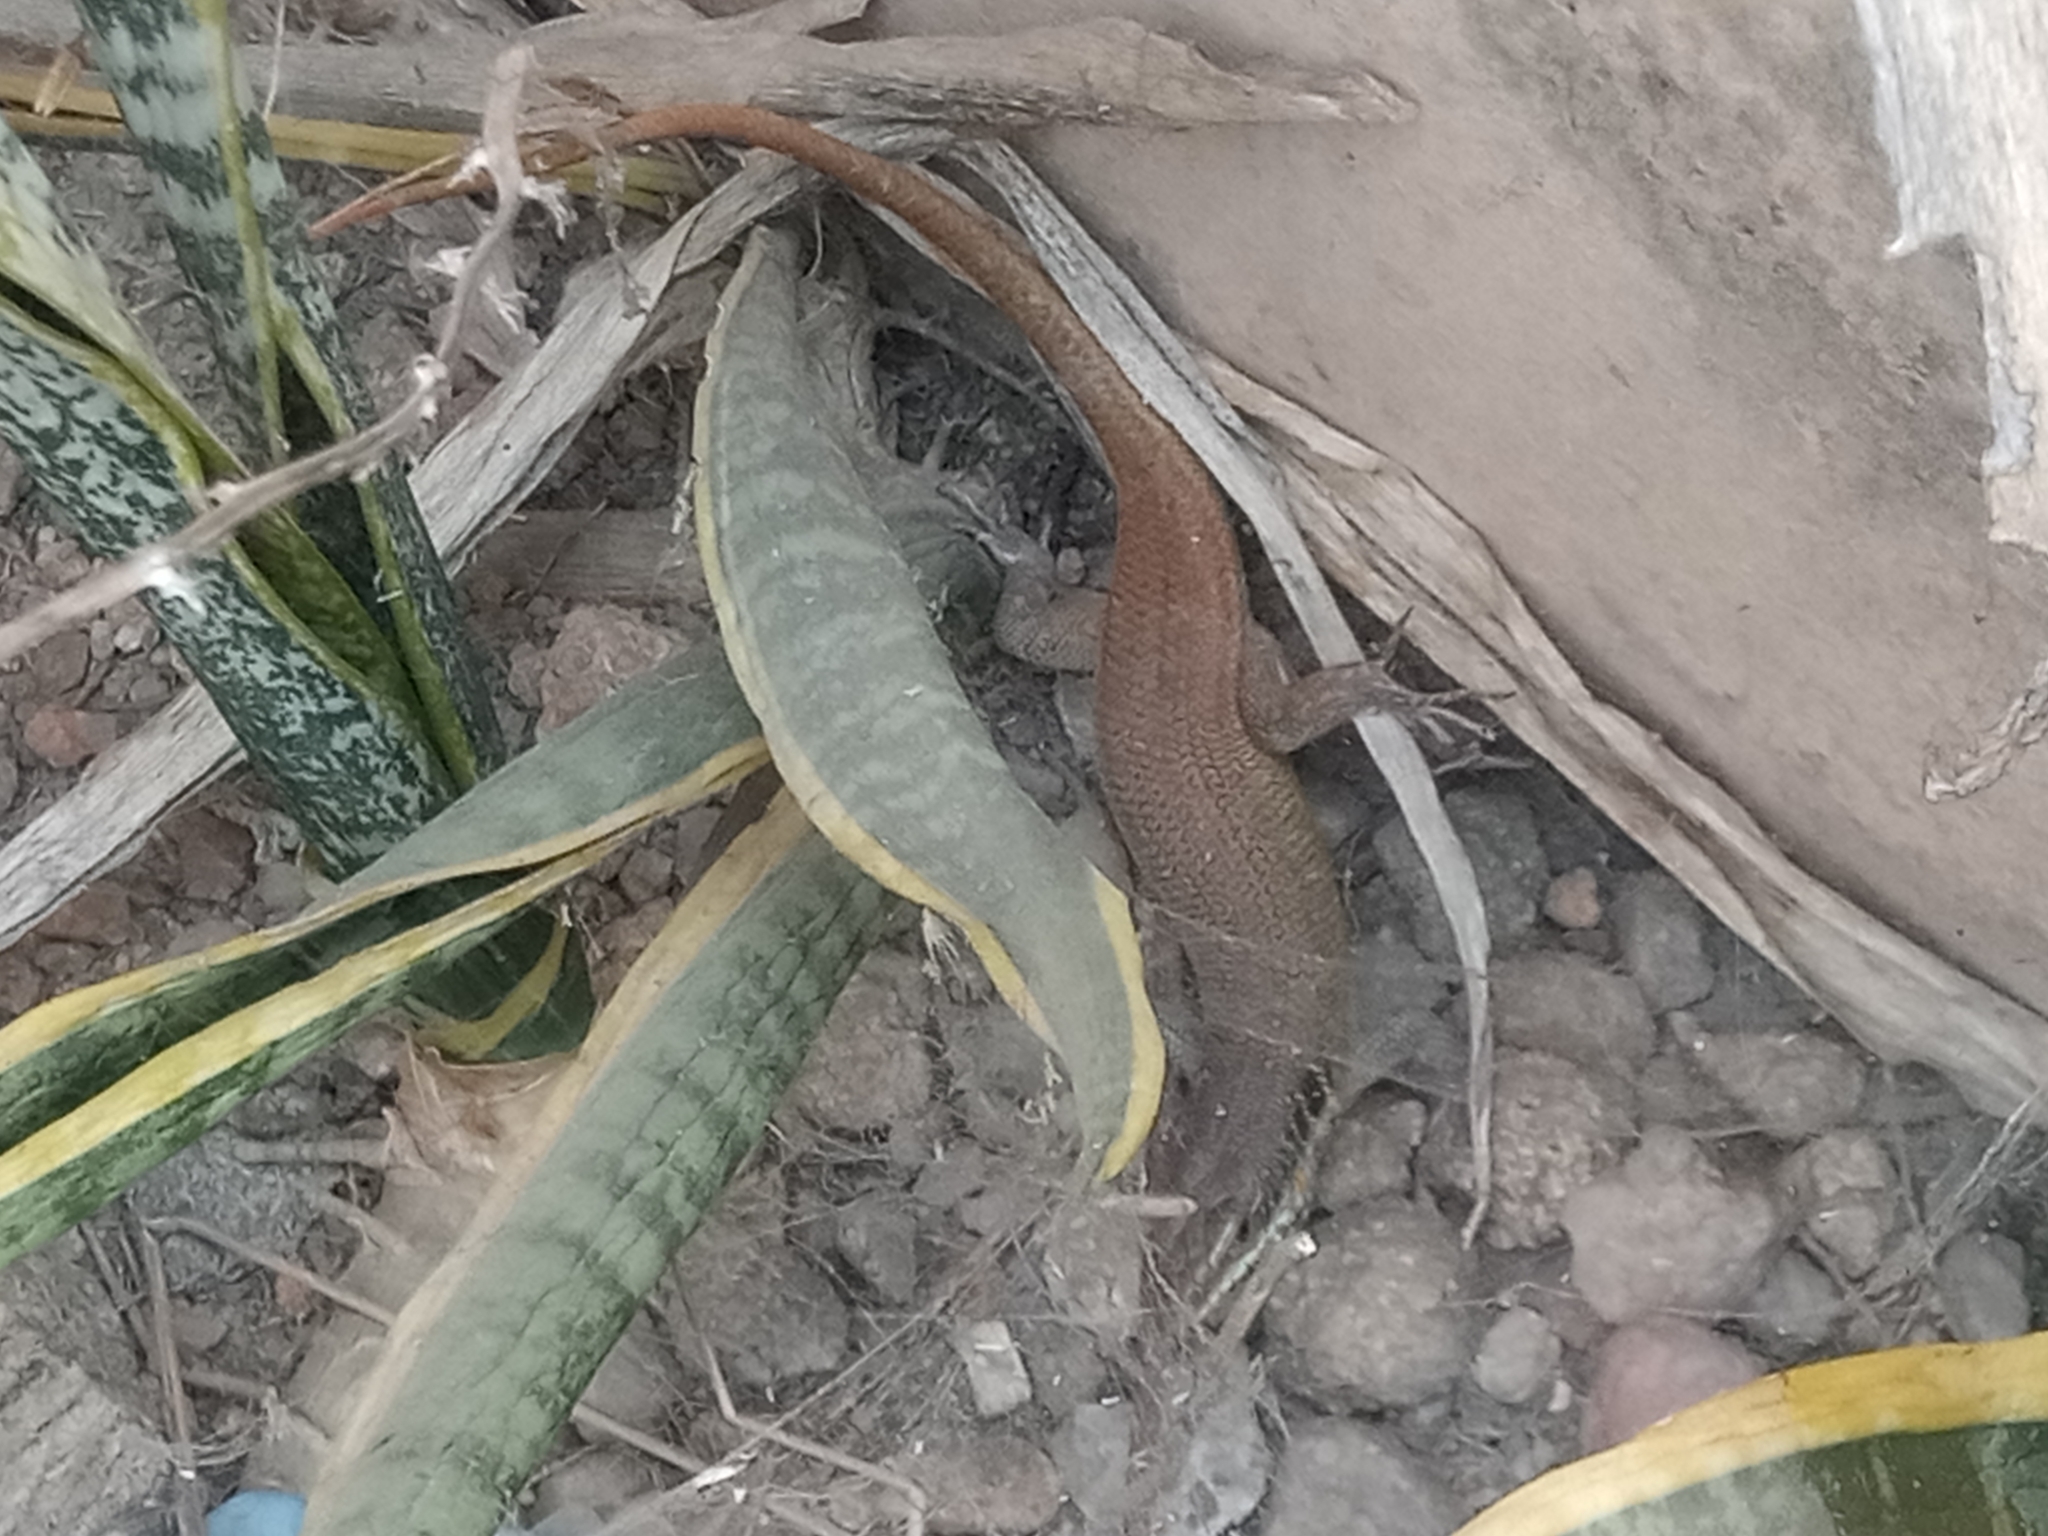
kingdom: Animalia
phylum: Chordata
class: Squamata
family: Scincidae
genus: Trachylepis
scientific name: Trachylepis quinquetaeniata
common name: African five-lined skink
